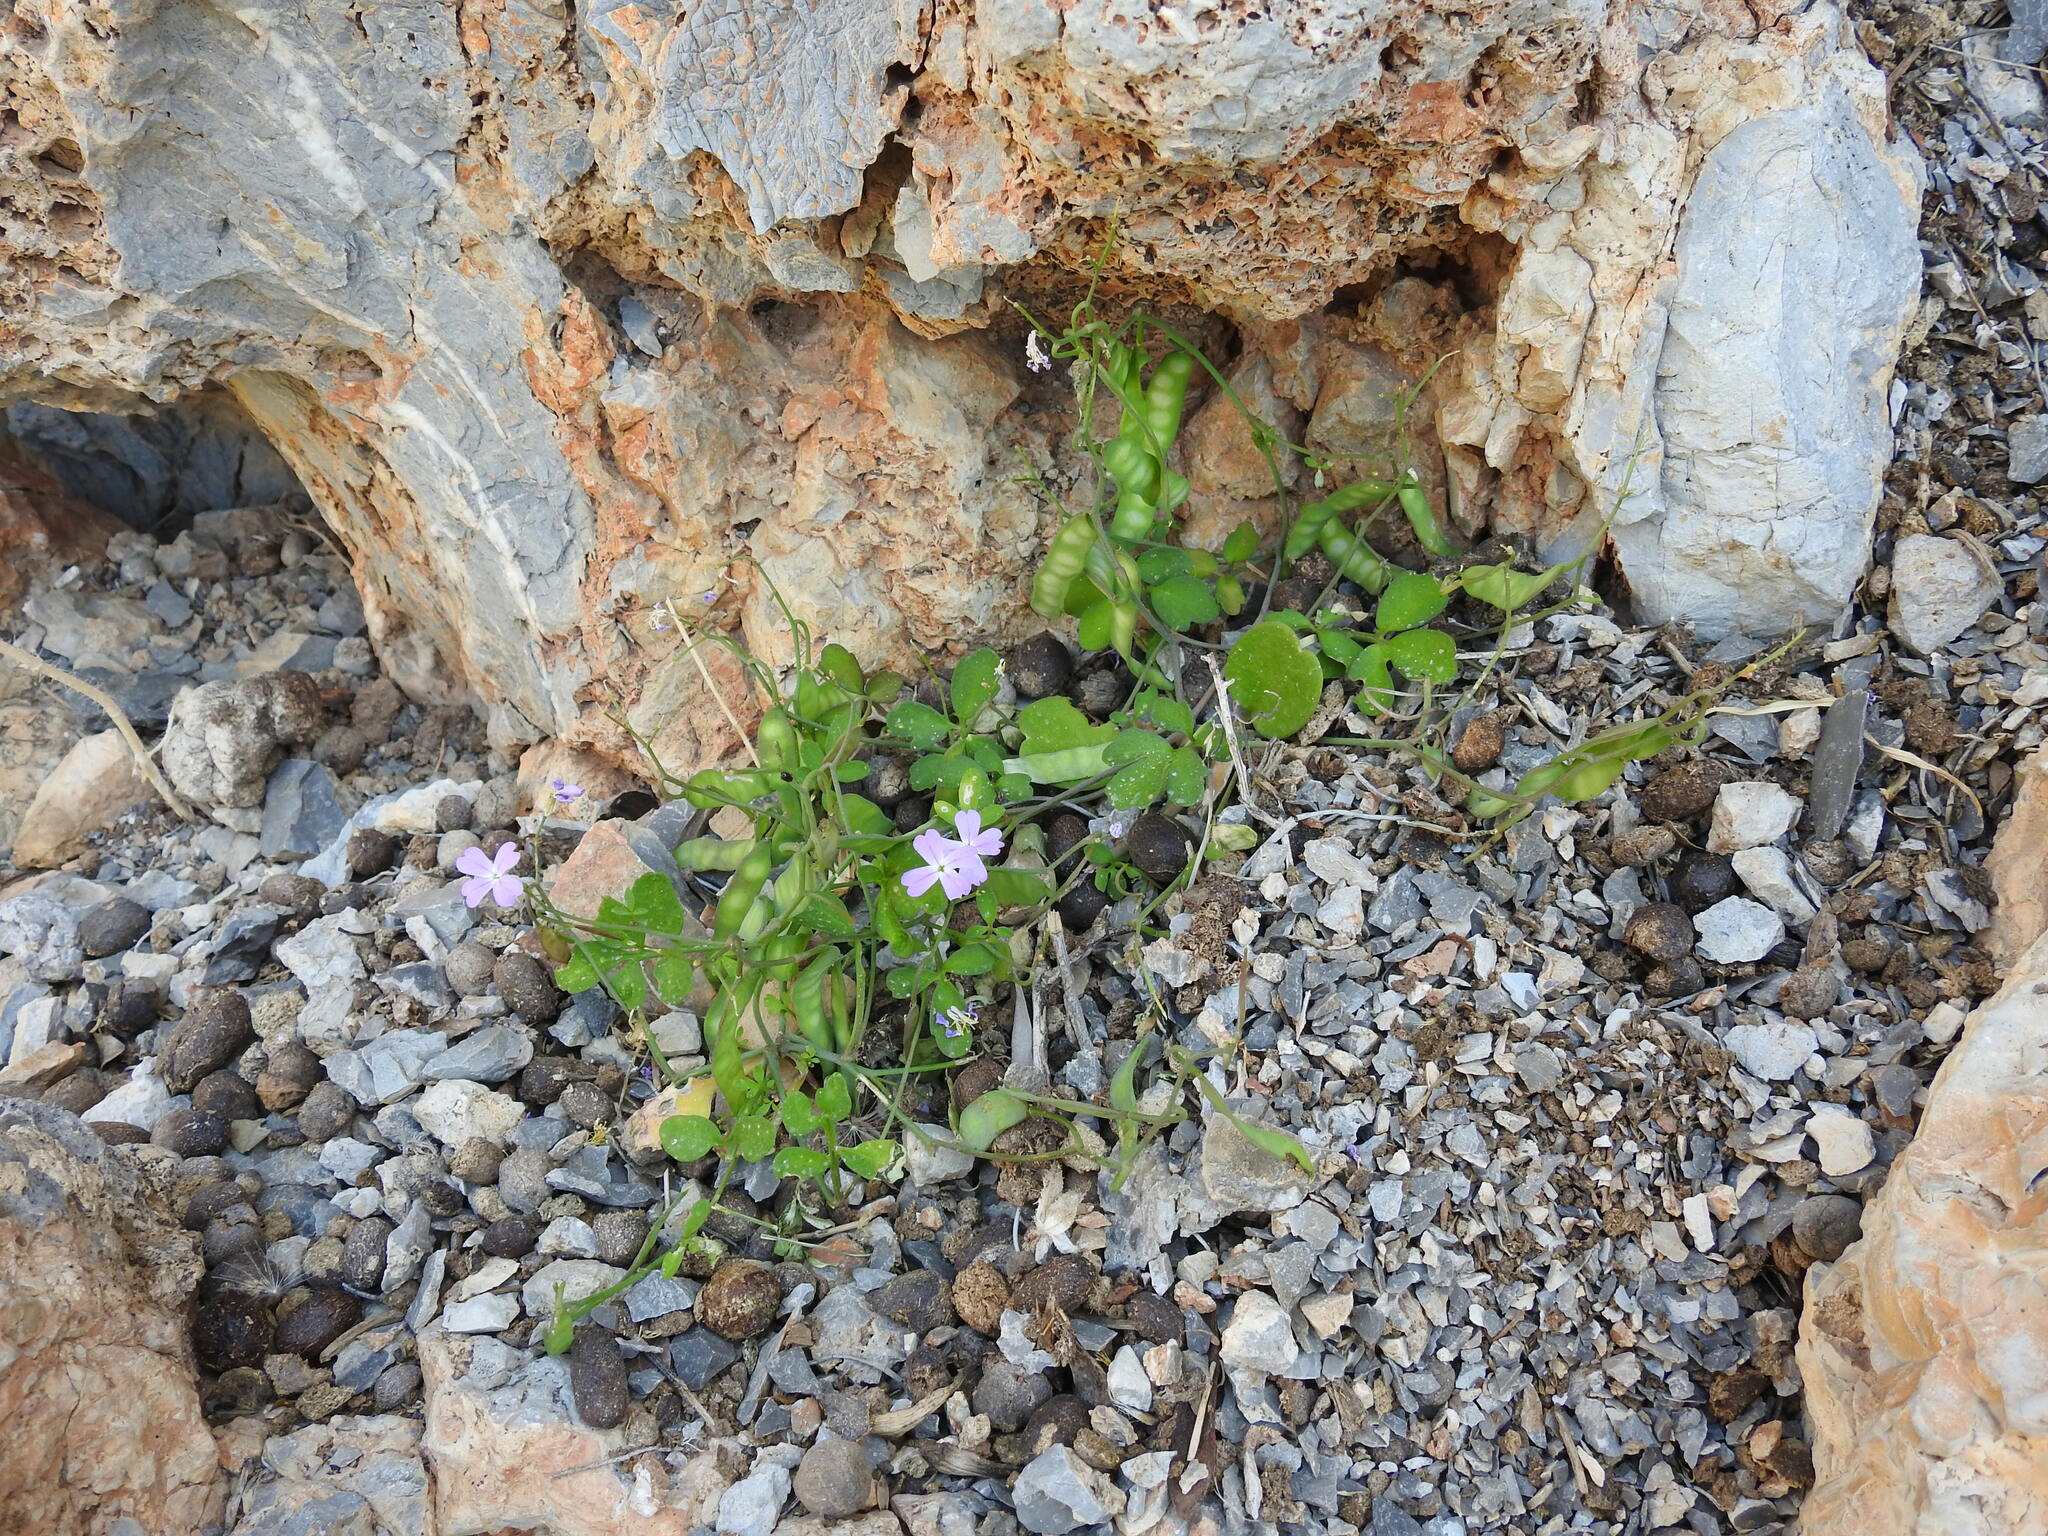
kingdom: Plantae
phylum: Tracheophyta
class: Magnoliopsida
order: Brassicales
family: Brassicaceae
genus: Ricotia
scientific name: Ricotia cretica
